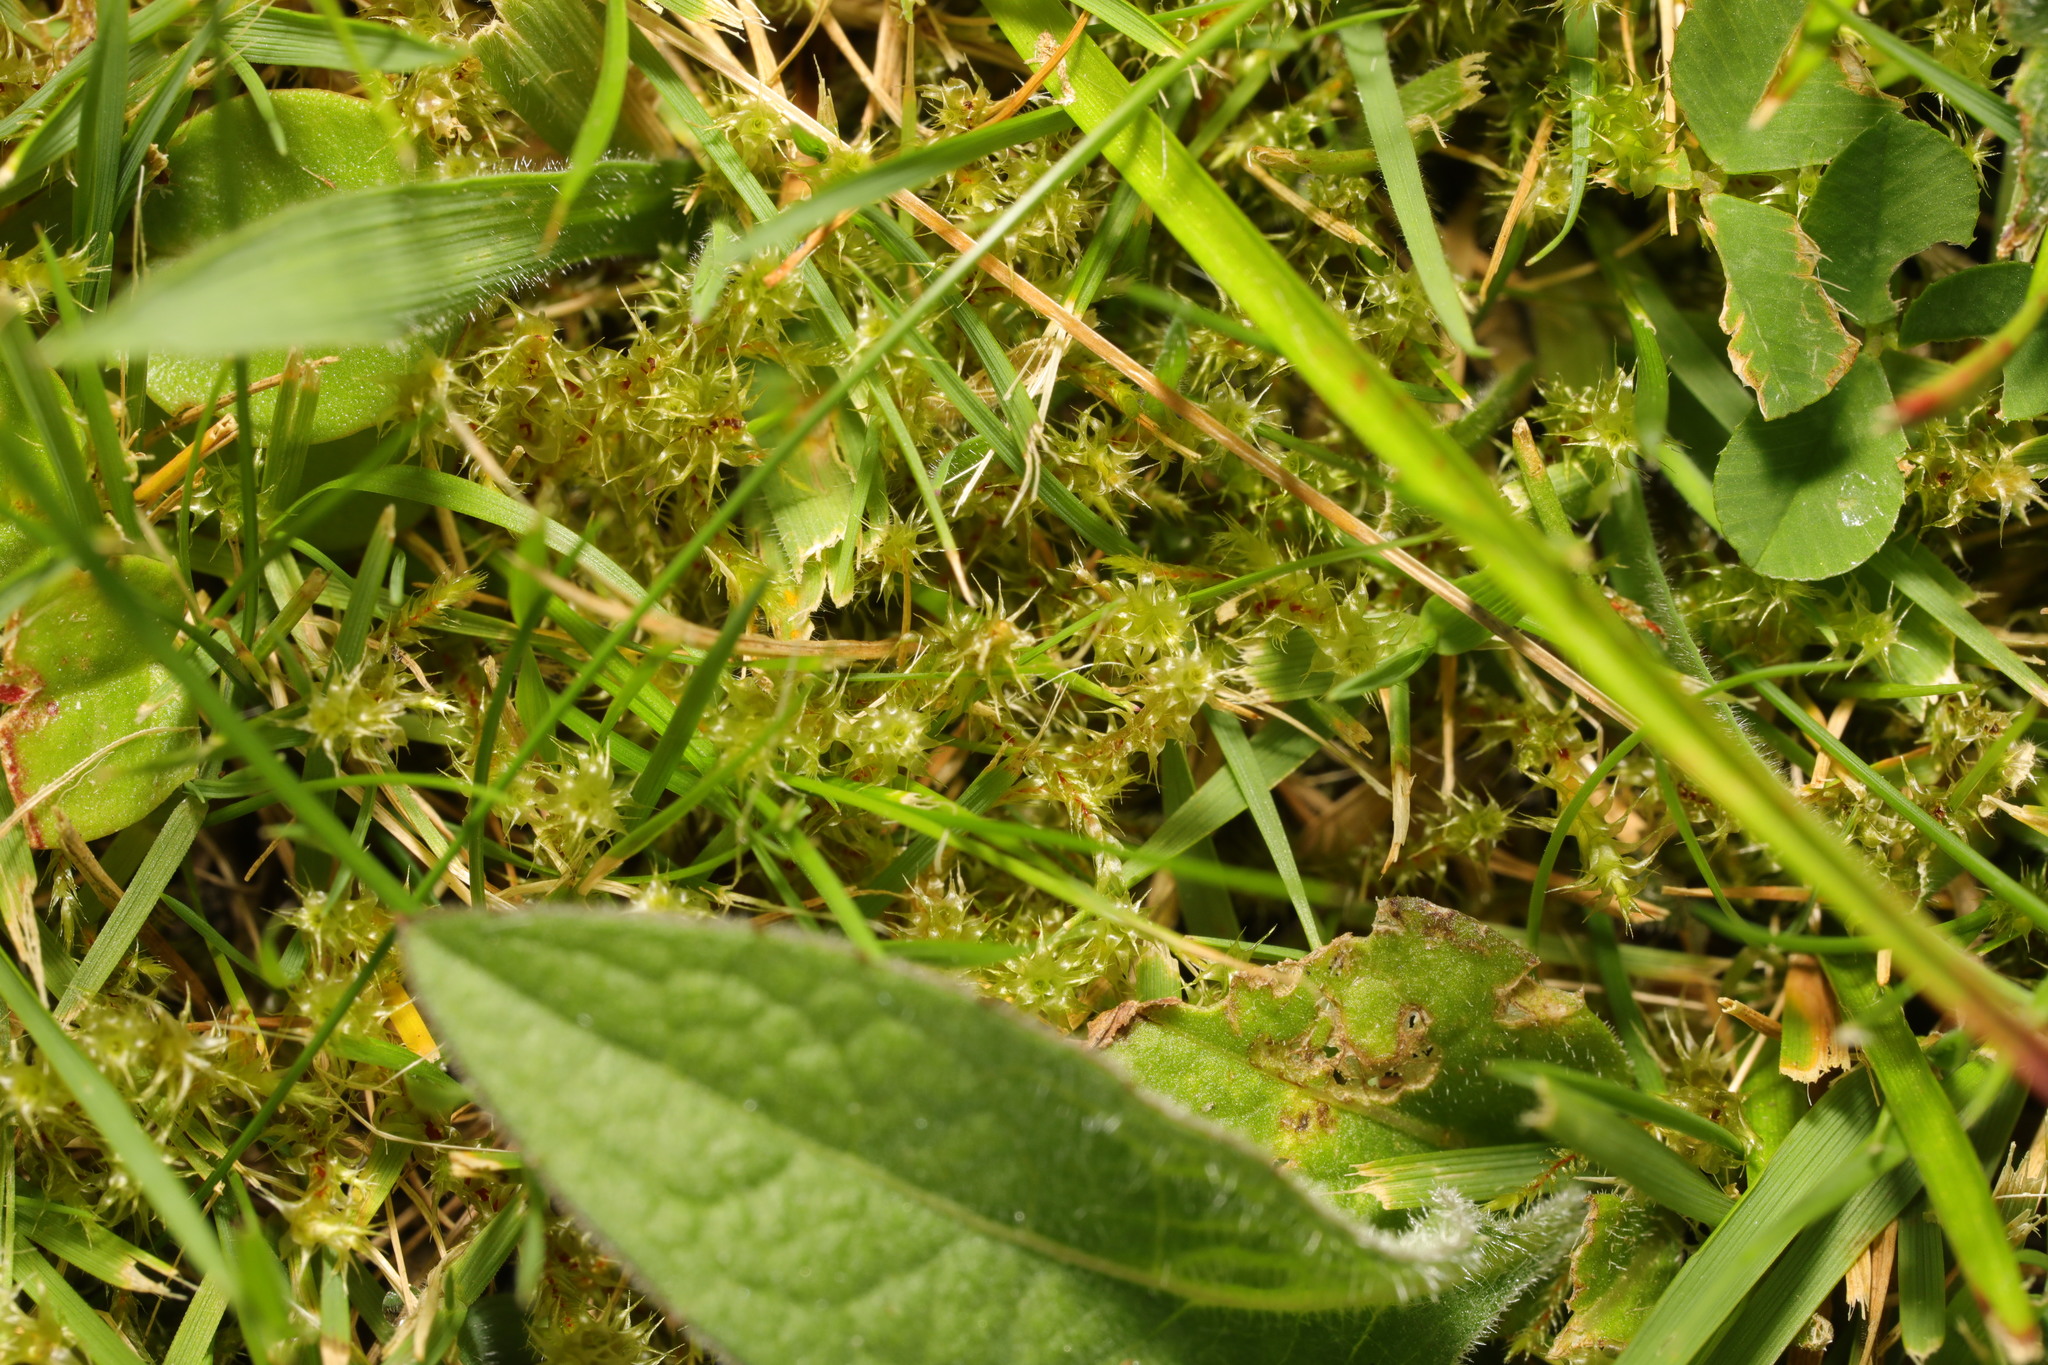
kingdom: Plantae
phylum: Bryophyta
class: Bryopsida
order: Hypnales
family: Hylocomiaceae
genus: Rhytidiadelphus
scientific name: Rhytidiadelphus squarrosus
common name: Springy turf-moss
